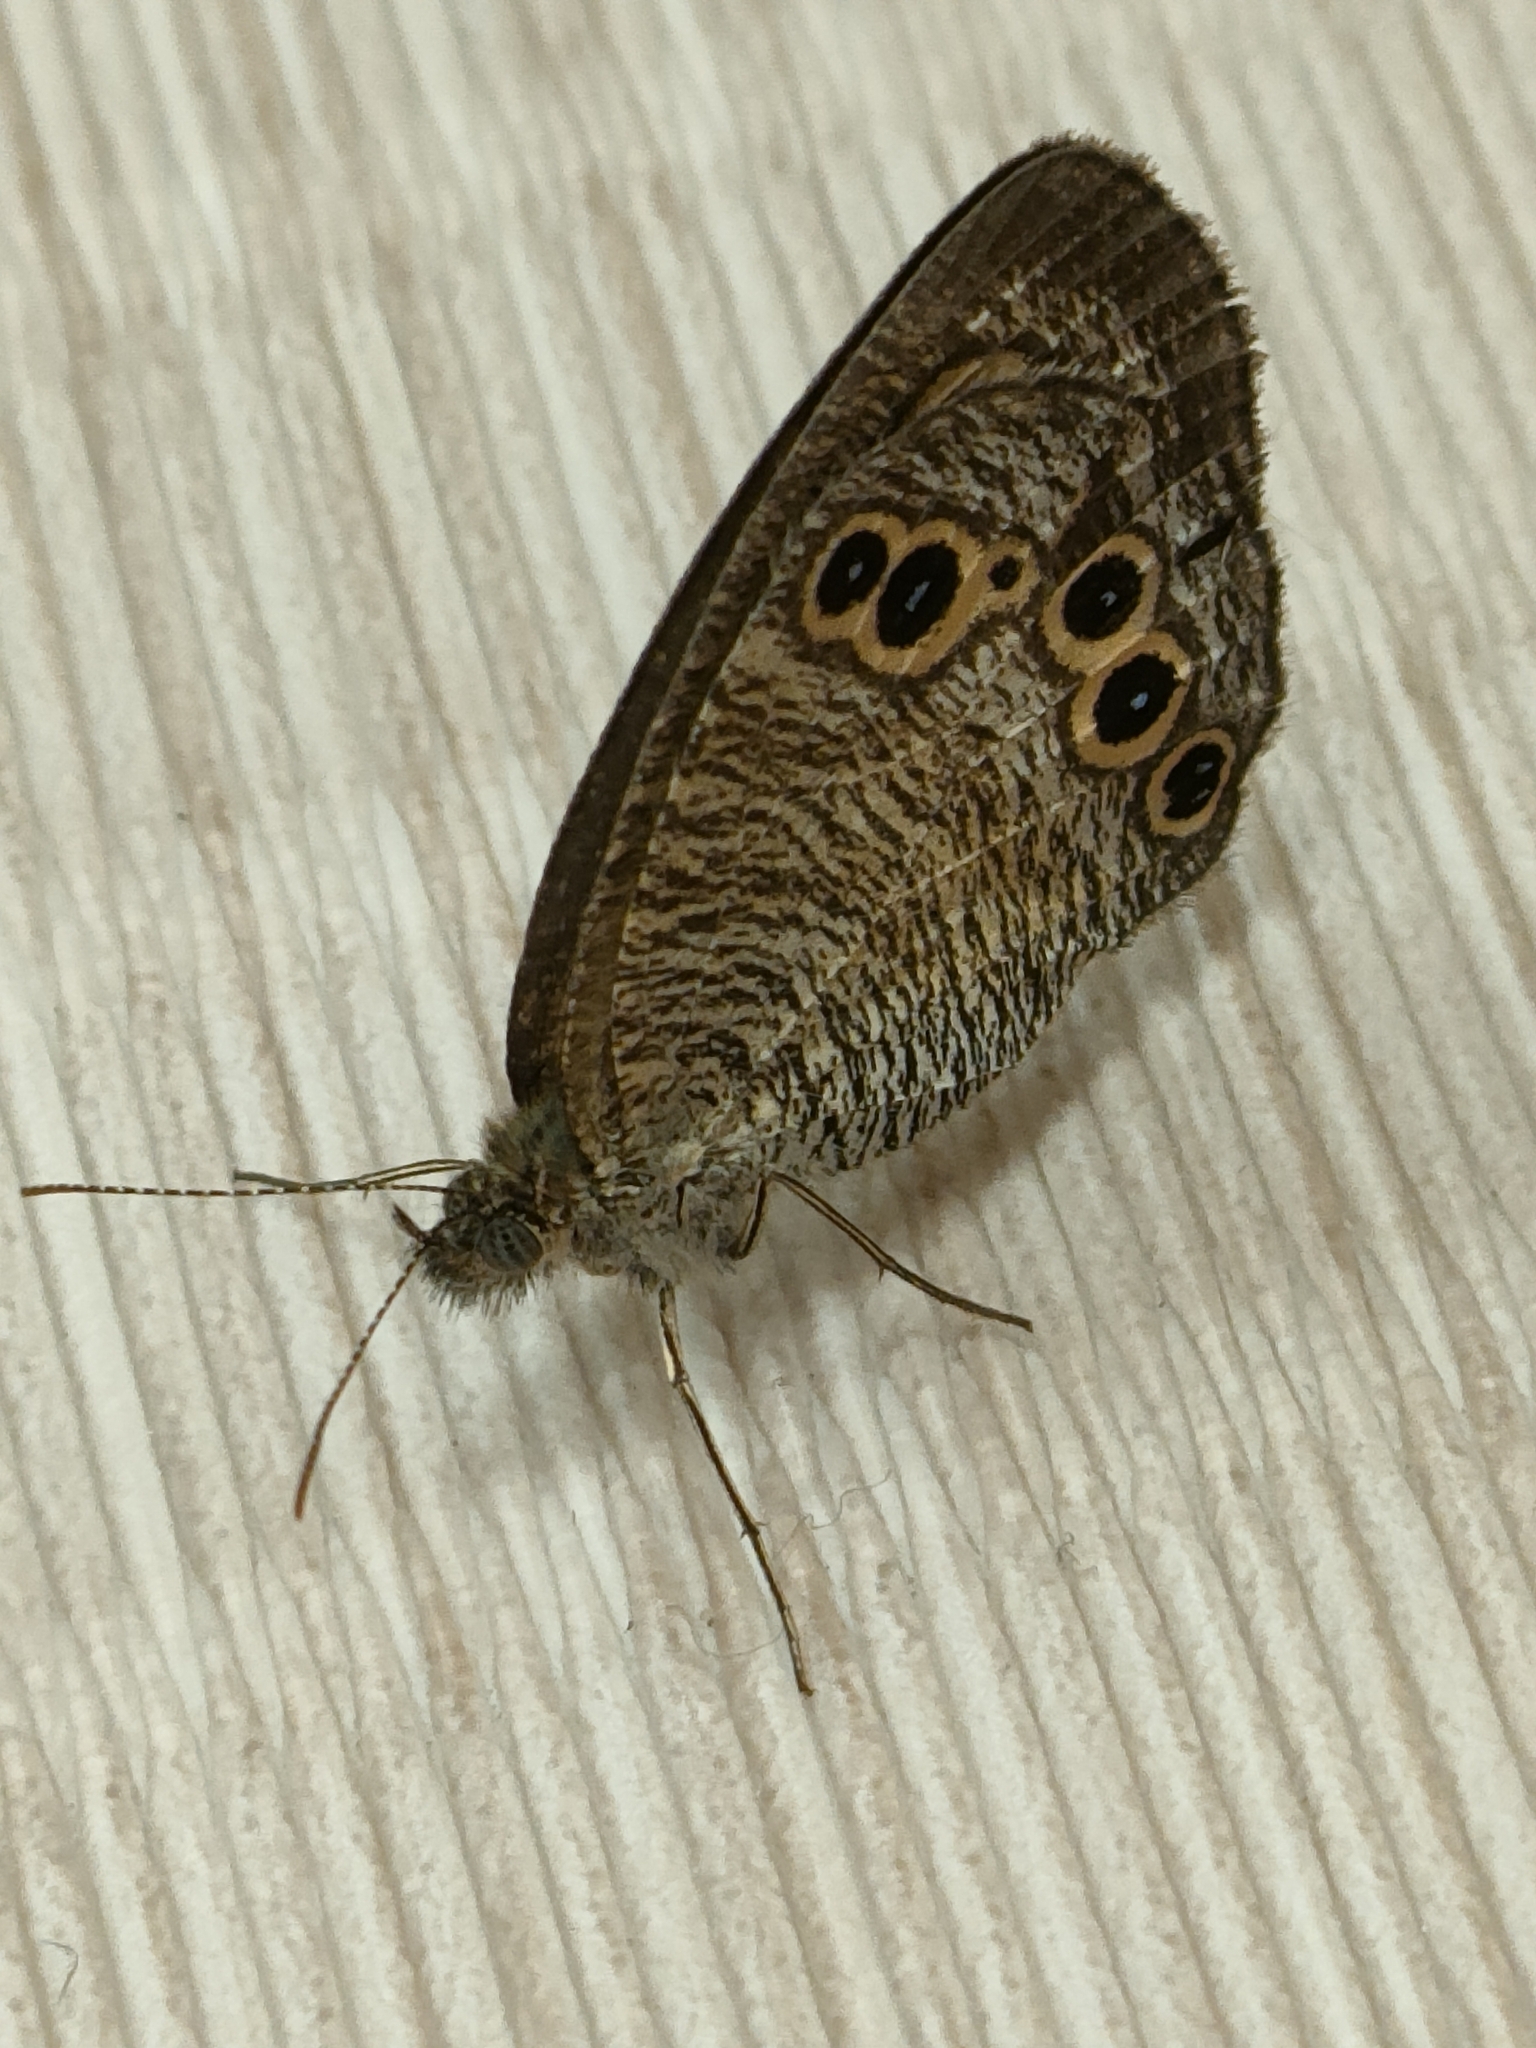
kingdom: Animalia
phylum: Arthropoda
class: Insecta
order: Lepidoptera
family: Nymphalidae
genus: Ypthima
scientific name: Ypthima argus
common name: Common fivering
